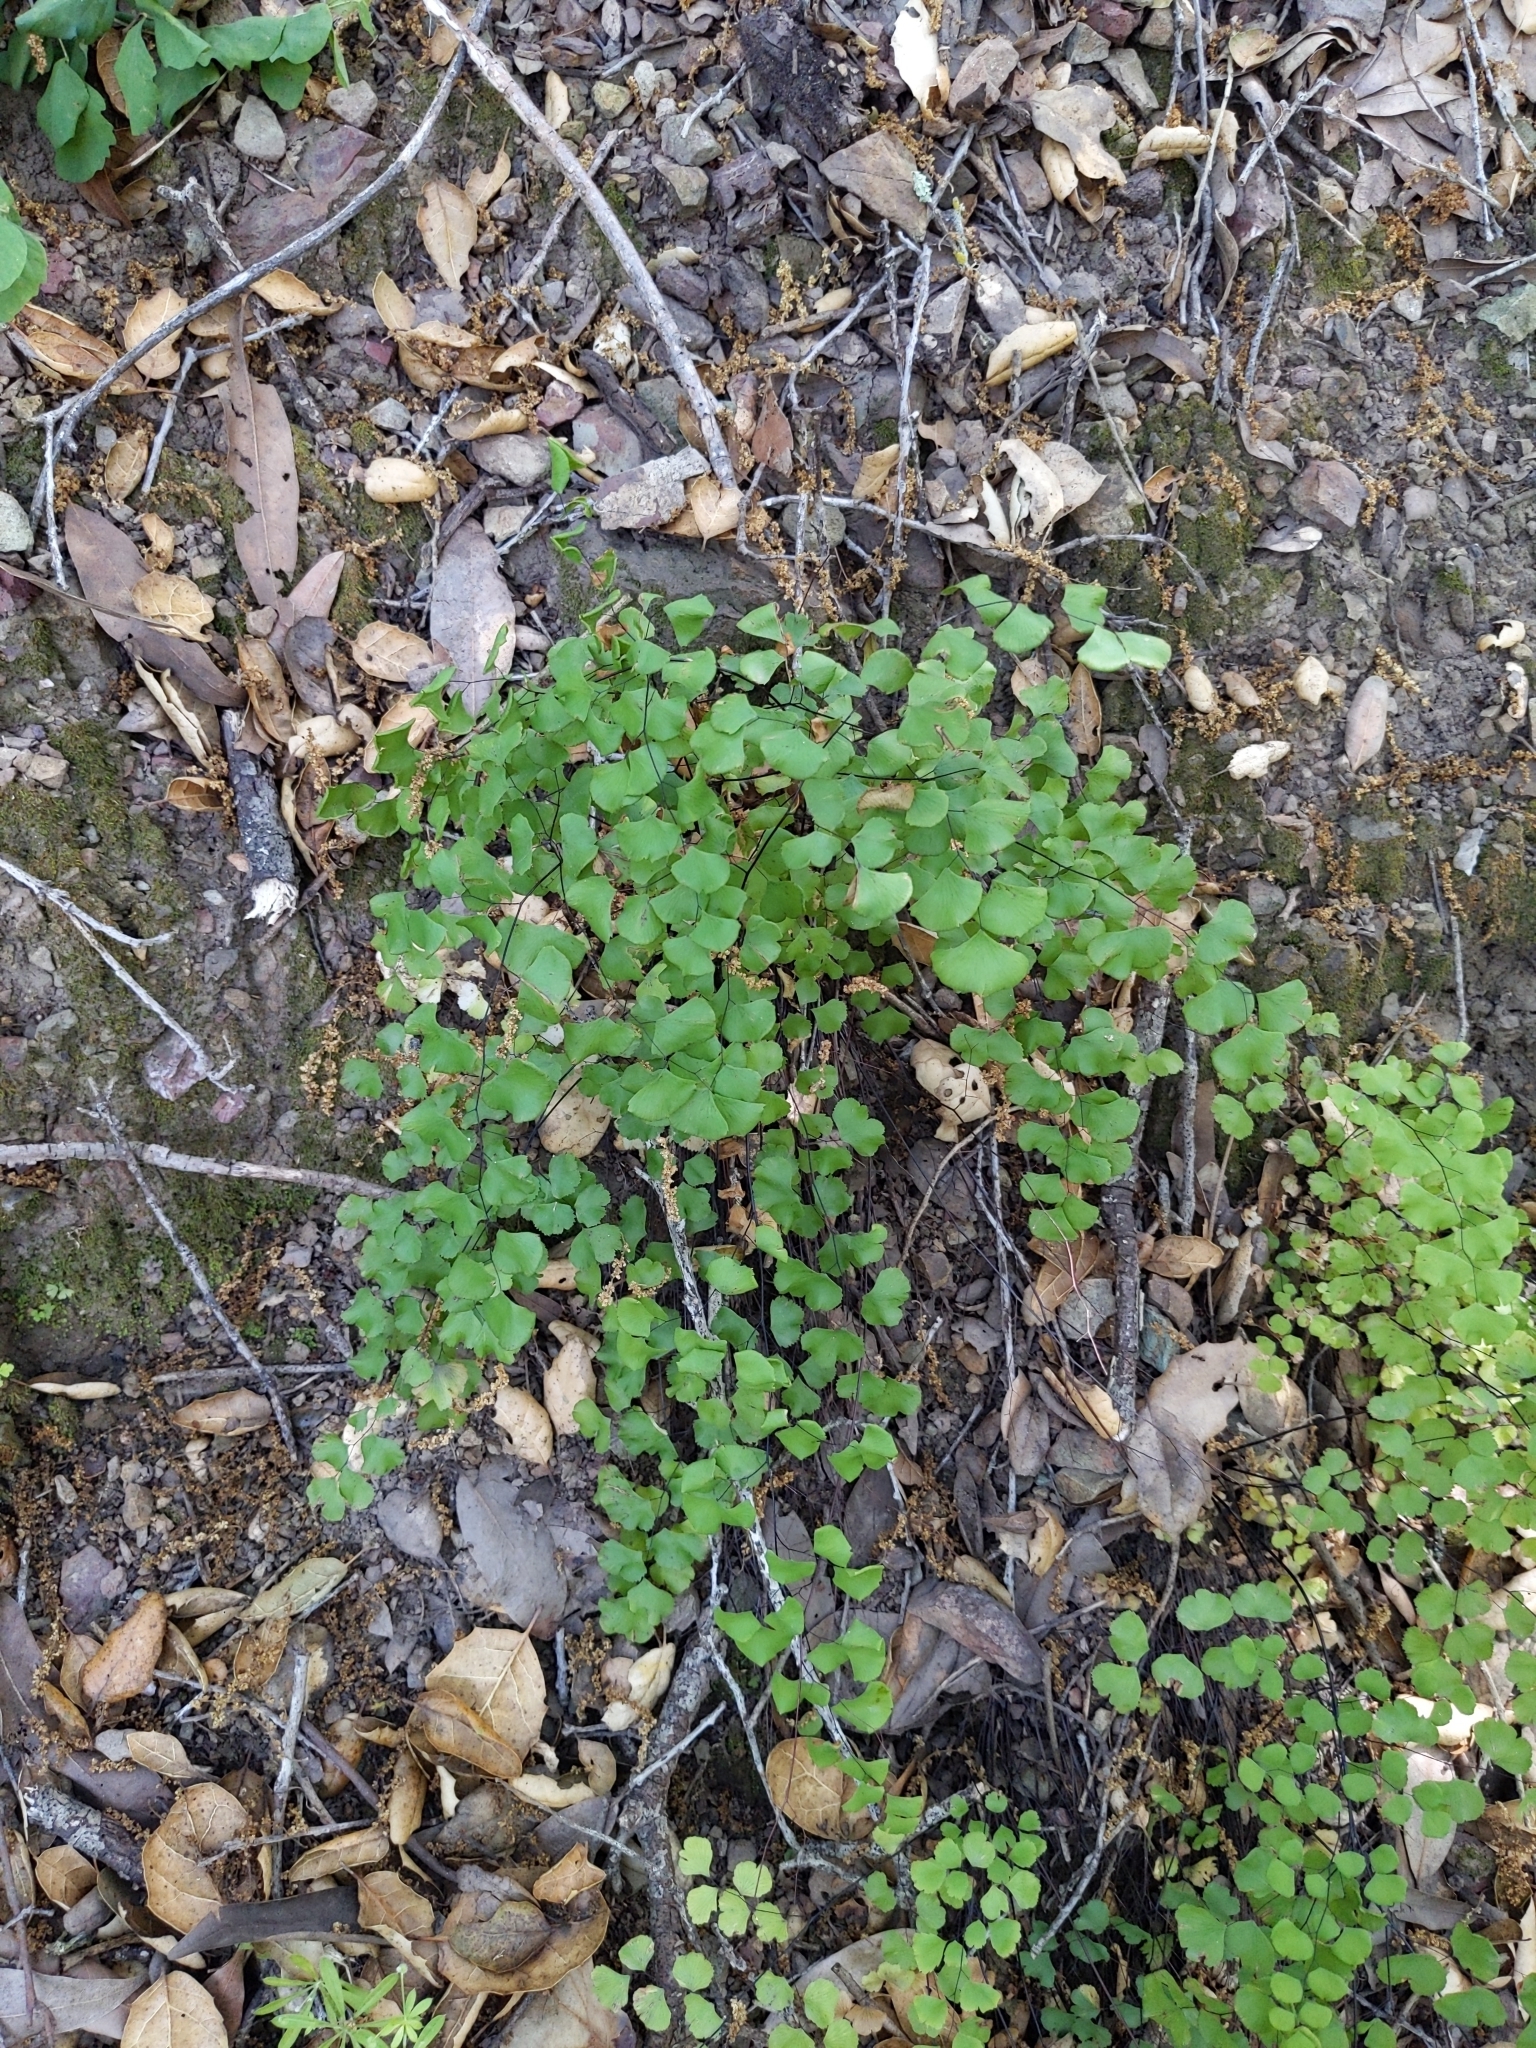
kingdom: Plantae
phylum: Tracheophyta
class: Polypodiopsida
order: Polypodiales
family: Pteridaceae
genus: Adiantum
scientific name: Adiantum jordanii
